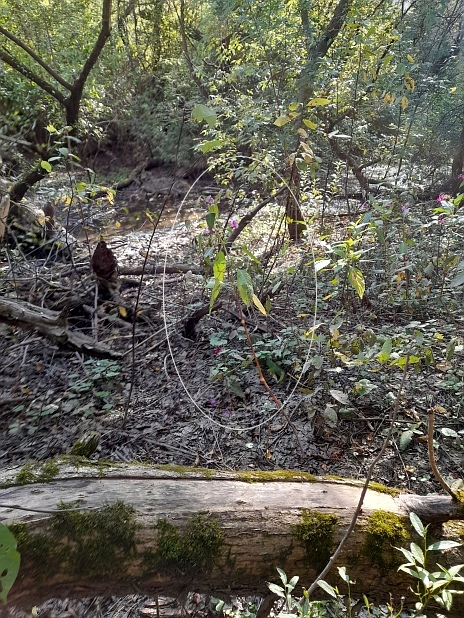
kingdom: Plantae
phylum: Tracheophyta
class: Magnoliopsida
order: Ericales
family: Balsaminaceae
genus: Impatiens
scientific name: Impatiens glandulifera
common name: Himalayan balsam
